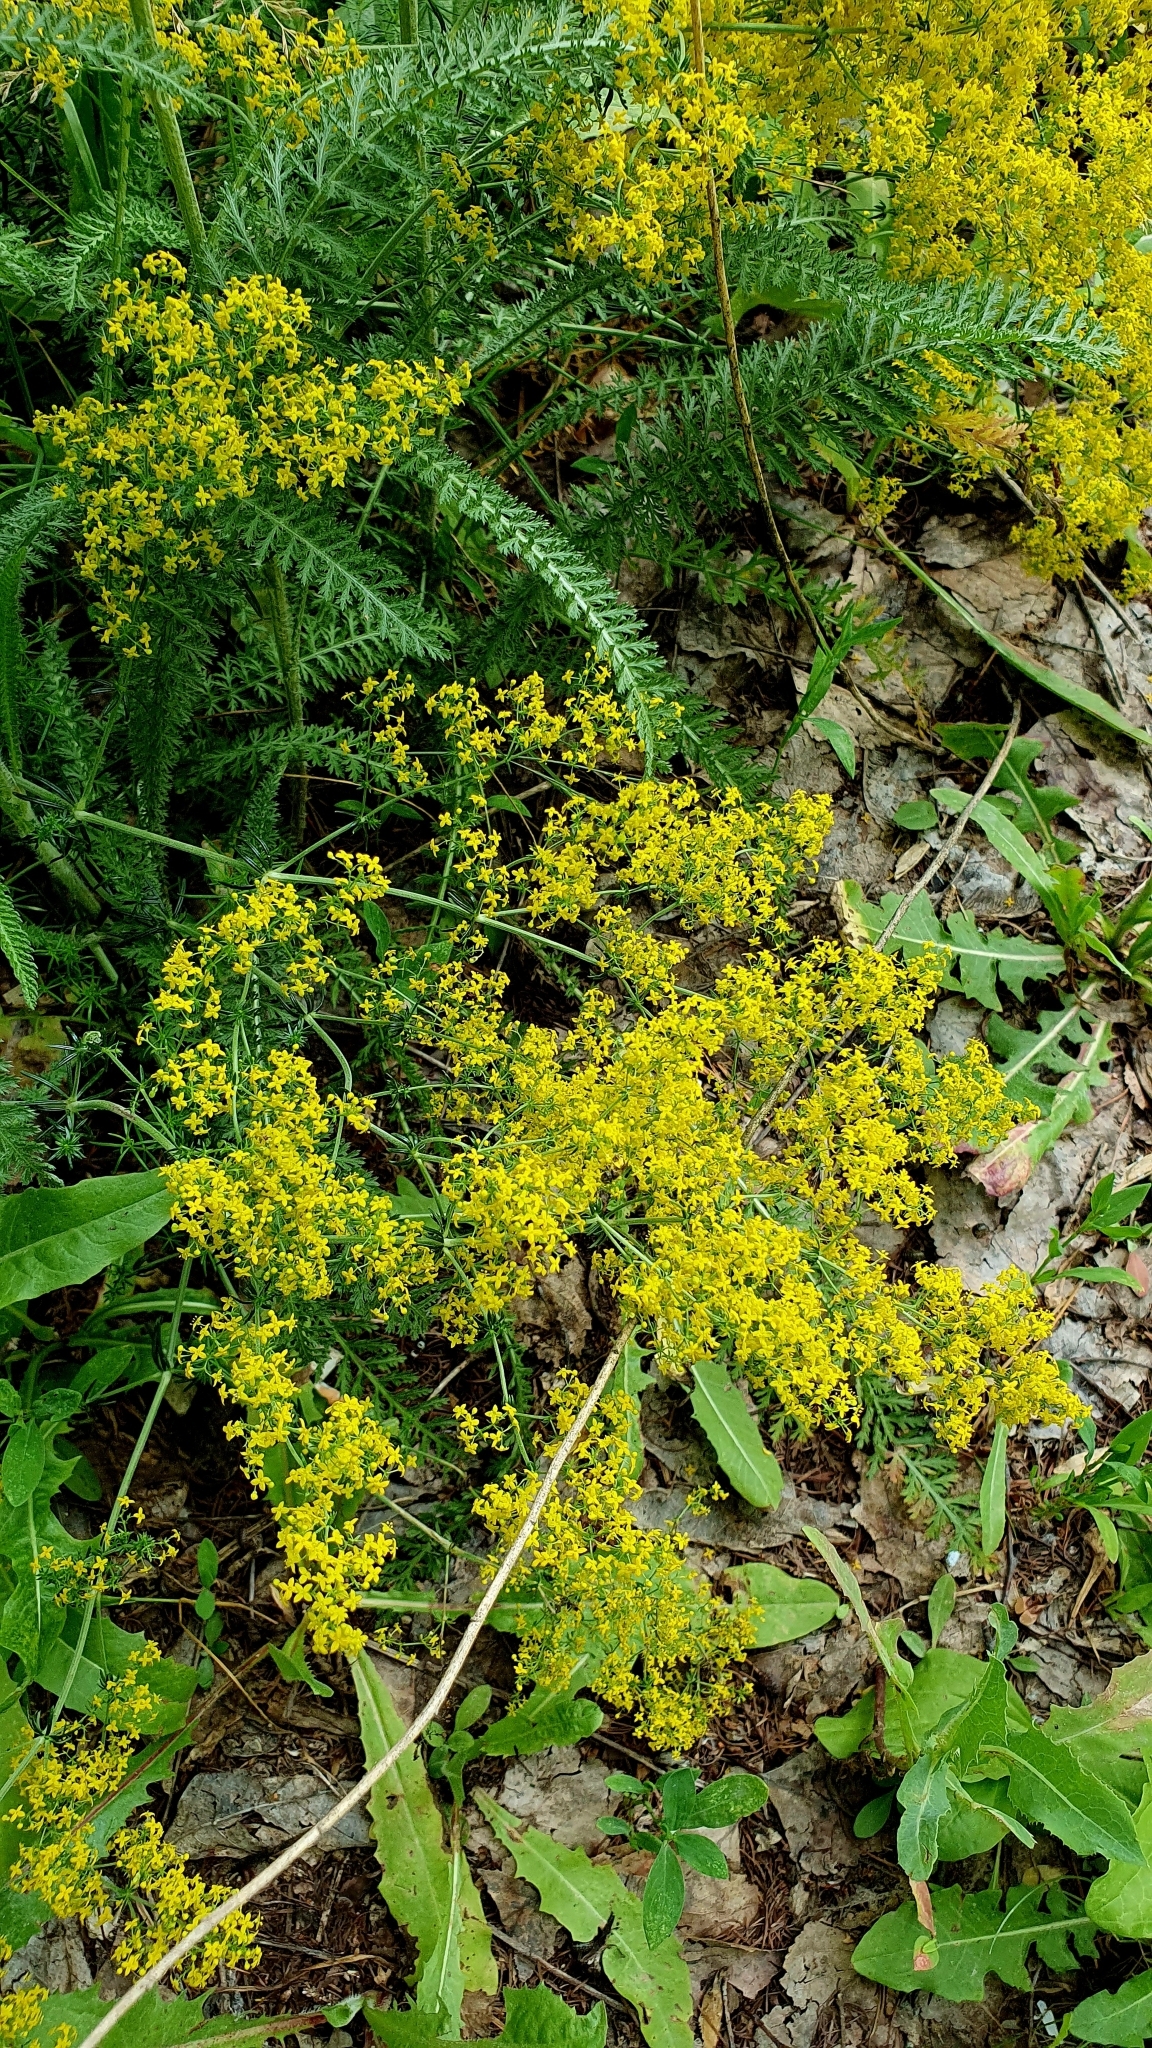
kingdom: Plantae
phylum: Tracheophyta
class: Magnoliopsida
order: Gentianales
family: Rubiaceae
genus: Galium
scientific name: Galium verum
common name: Lady's bedstraw
